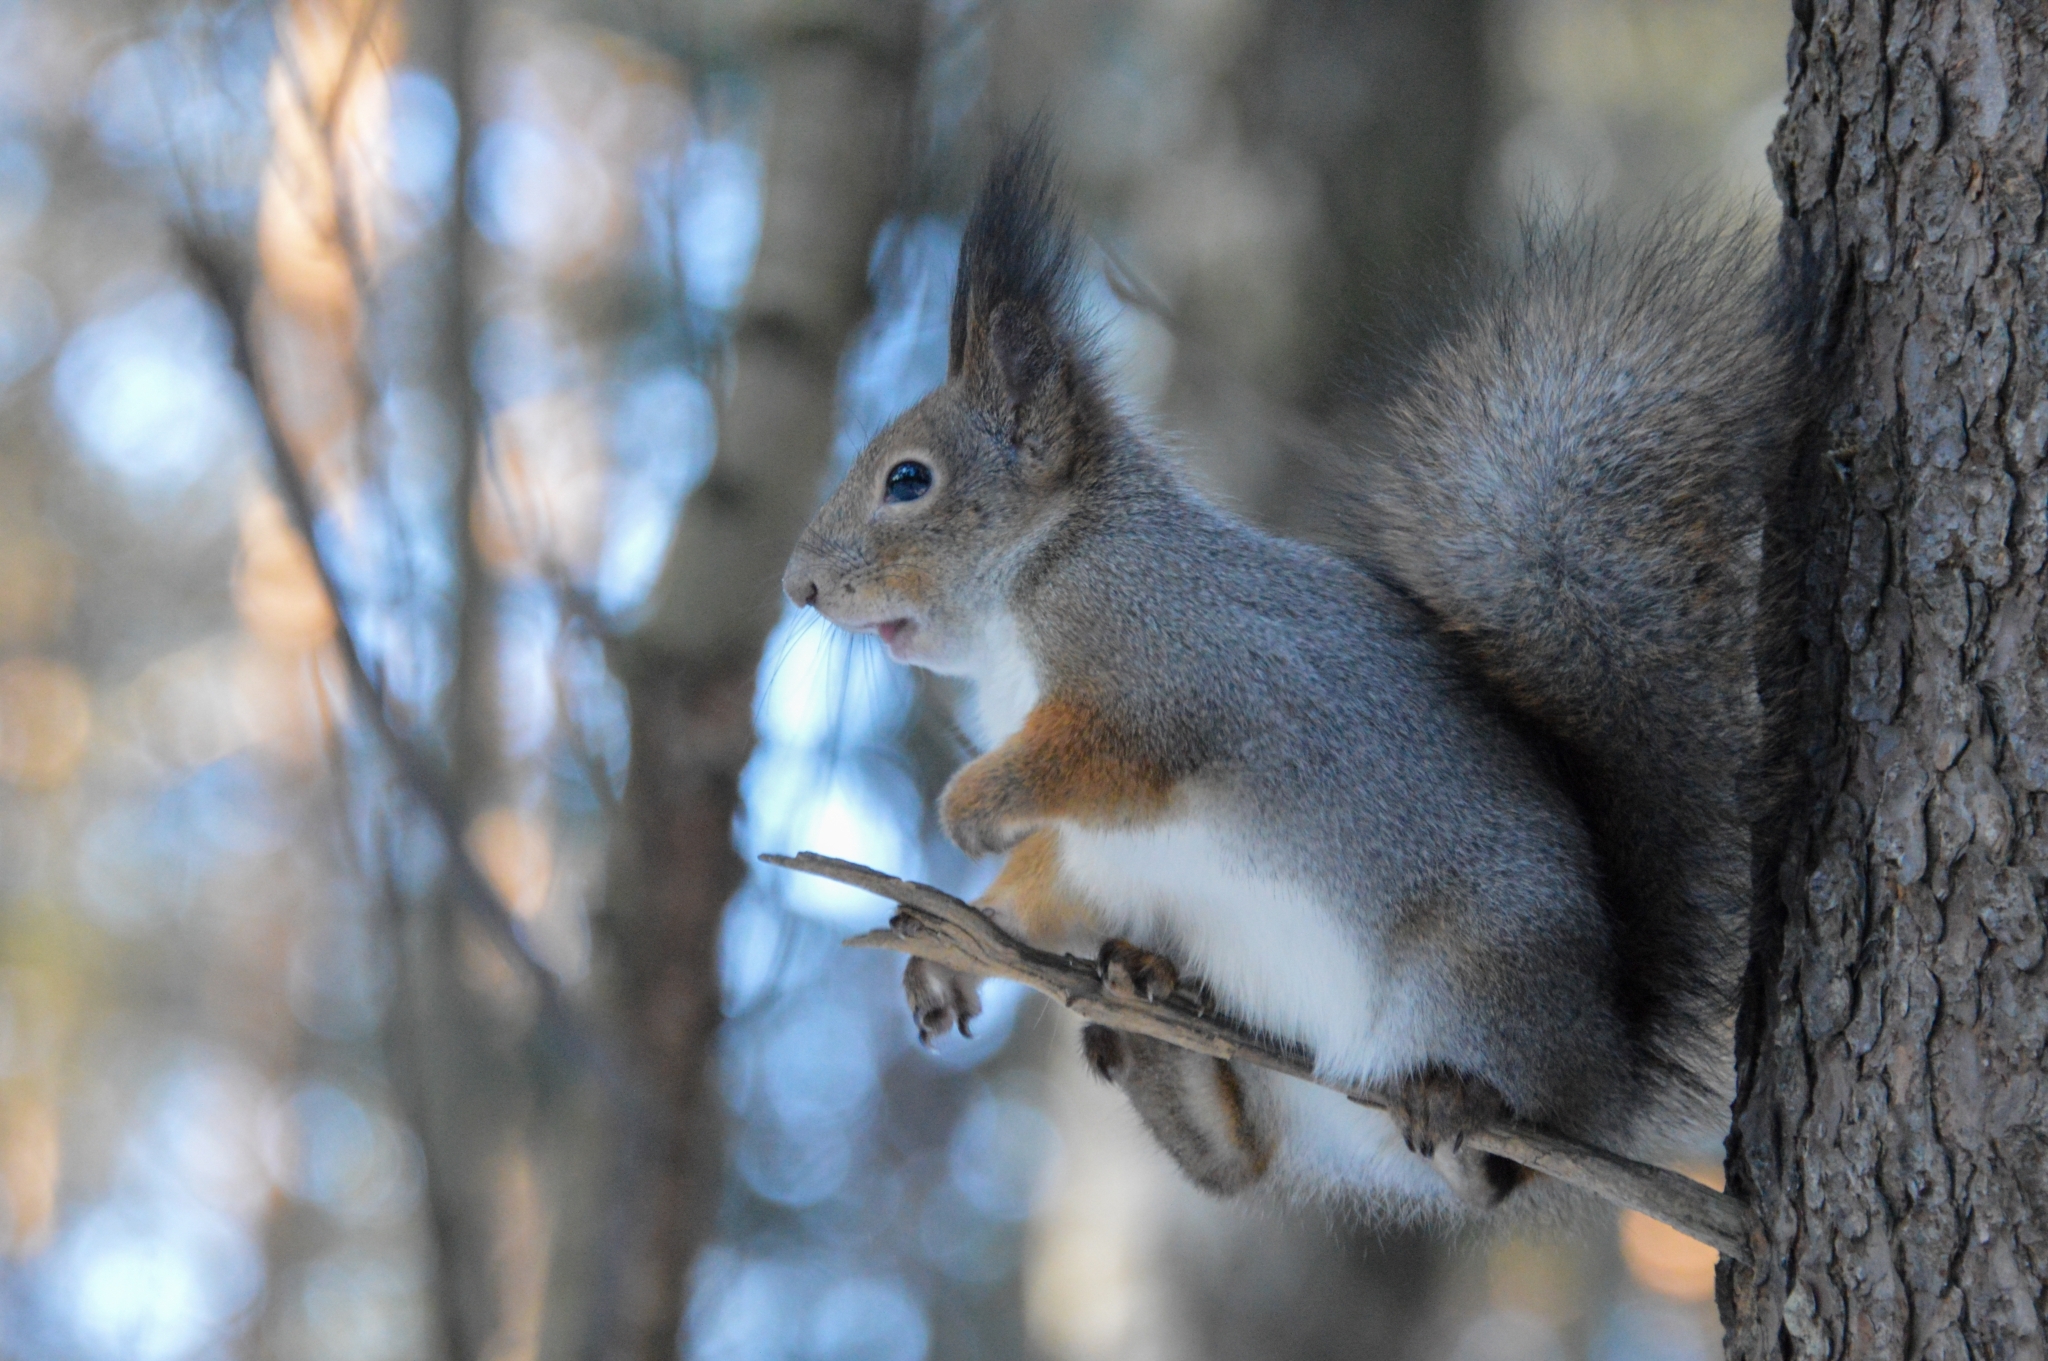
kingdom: Animalia
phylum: Chordata
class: Mammalia
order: Rodentia
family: Sciuridae
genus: Sciurus
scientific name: Sciurus vulgaris
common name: Eurasian red squirrel
